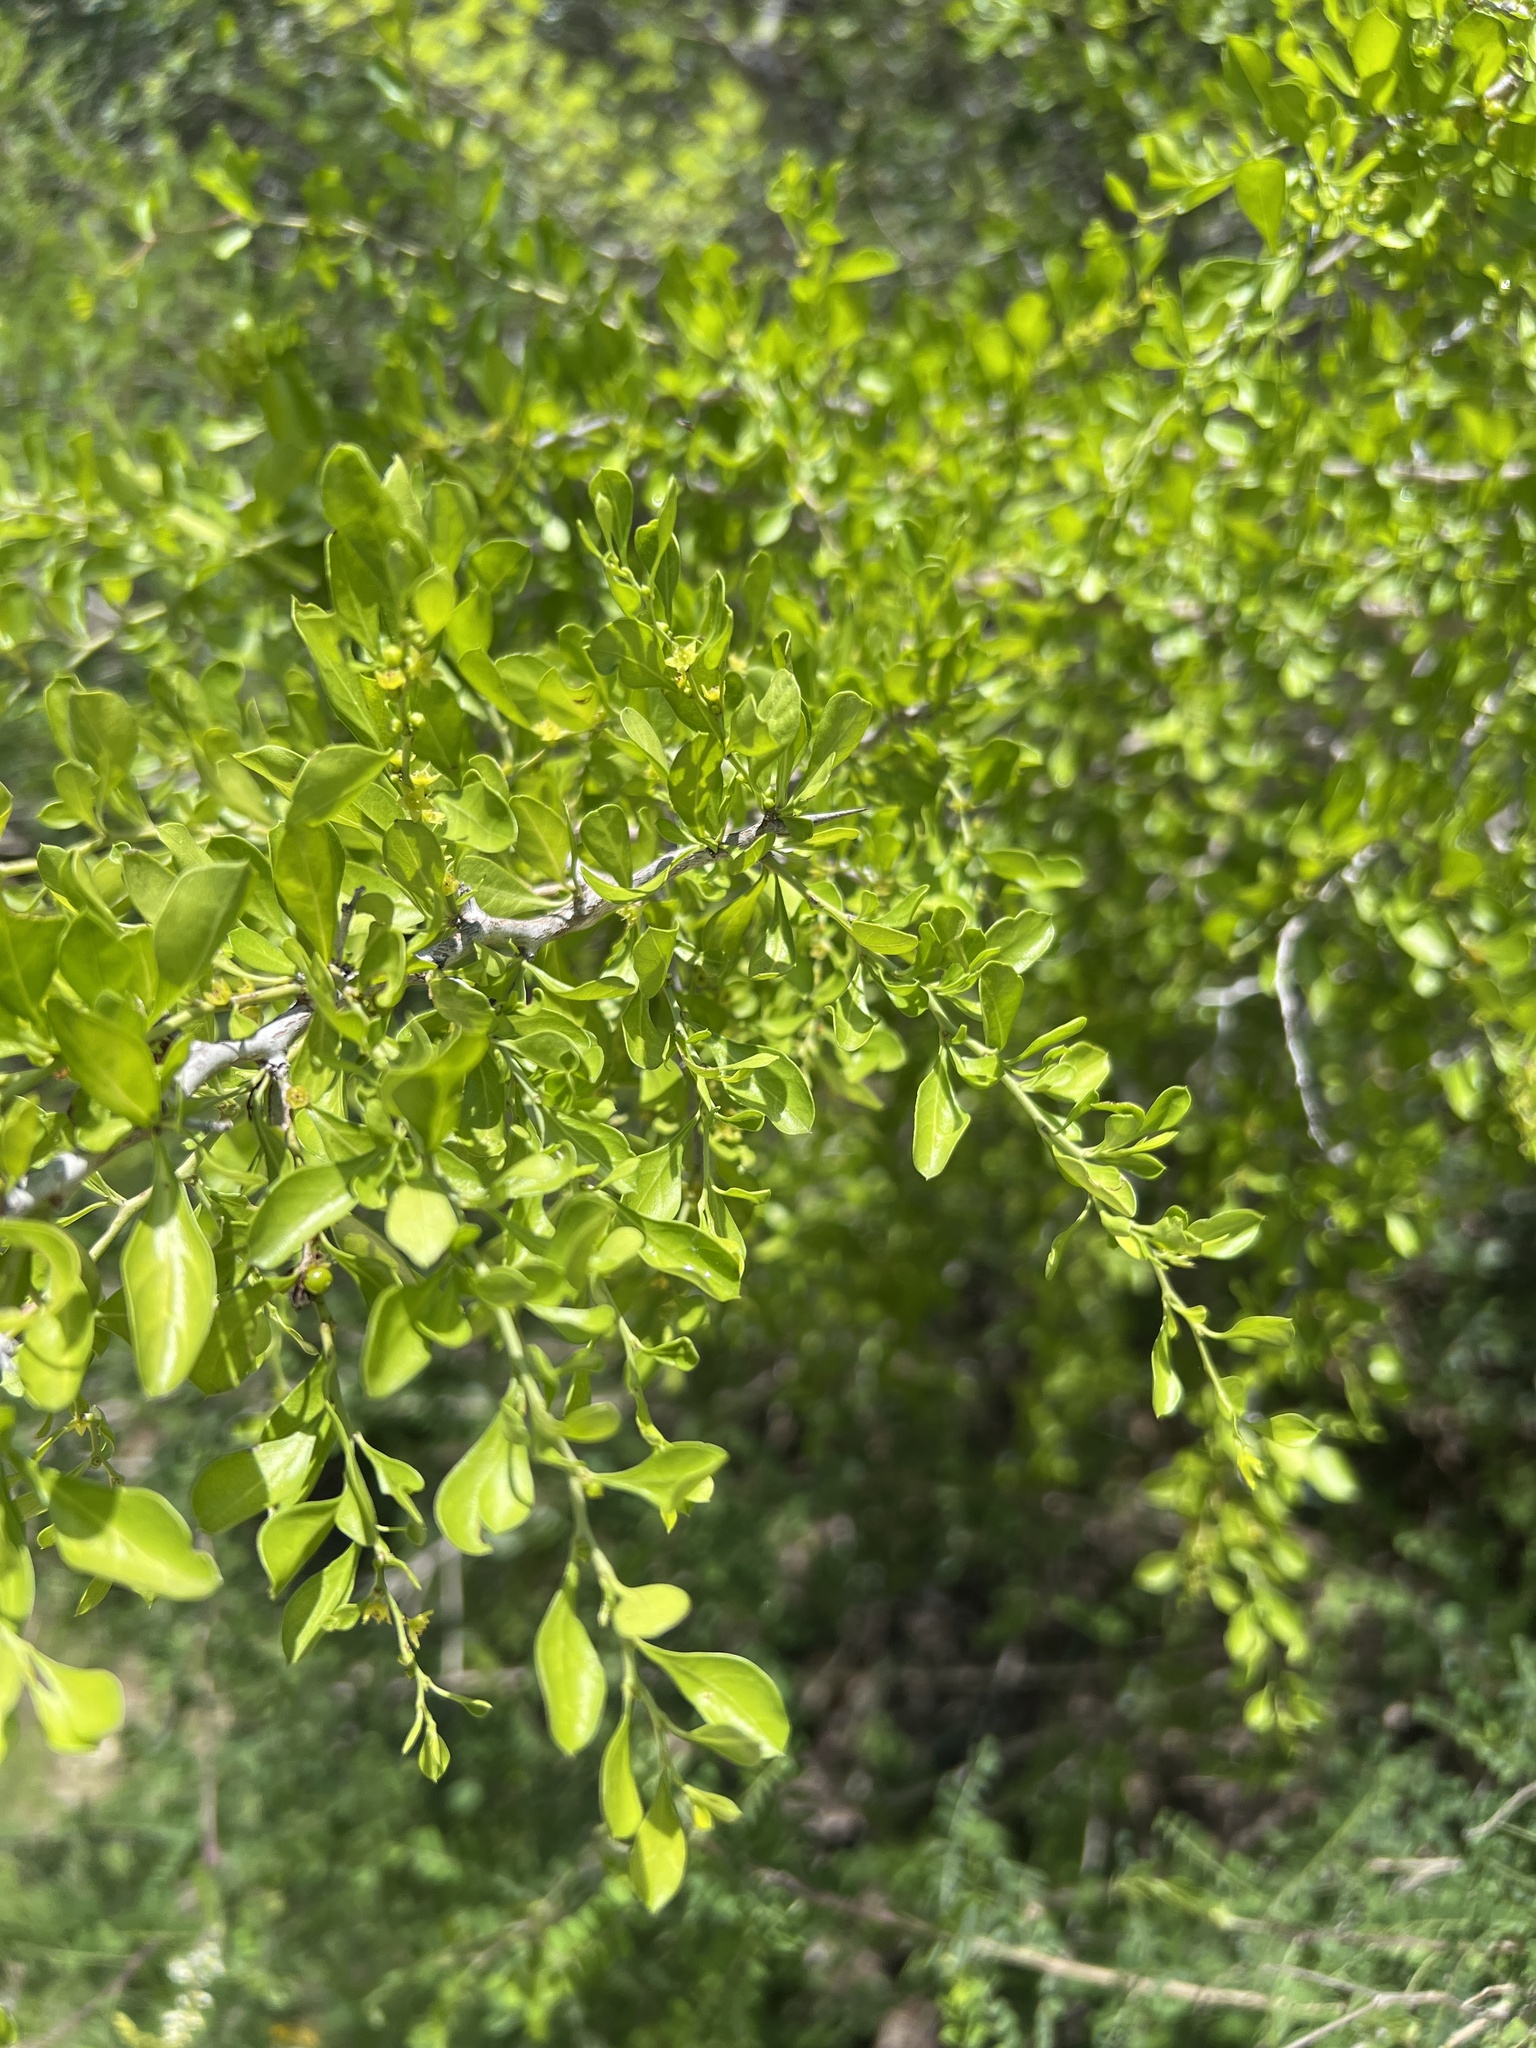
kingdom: Plantae
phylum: Tracheophyta
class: Magnoliopsida
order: Rosales
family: Rhamnaceae
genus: Condalia
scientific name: Condalia hookeri
